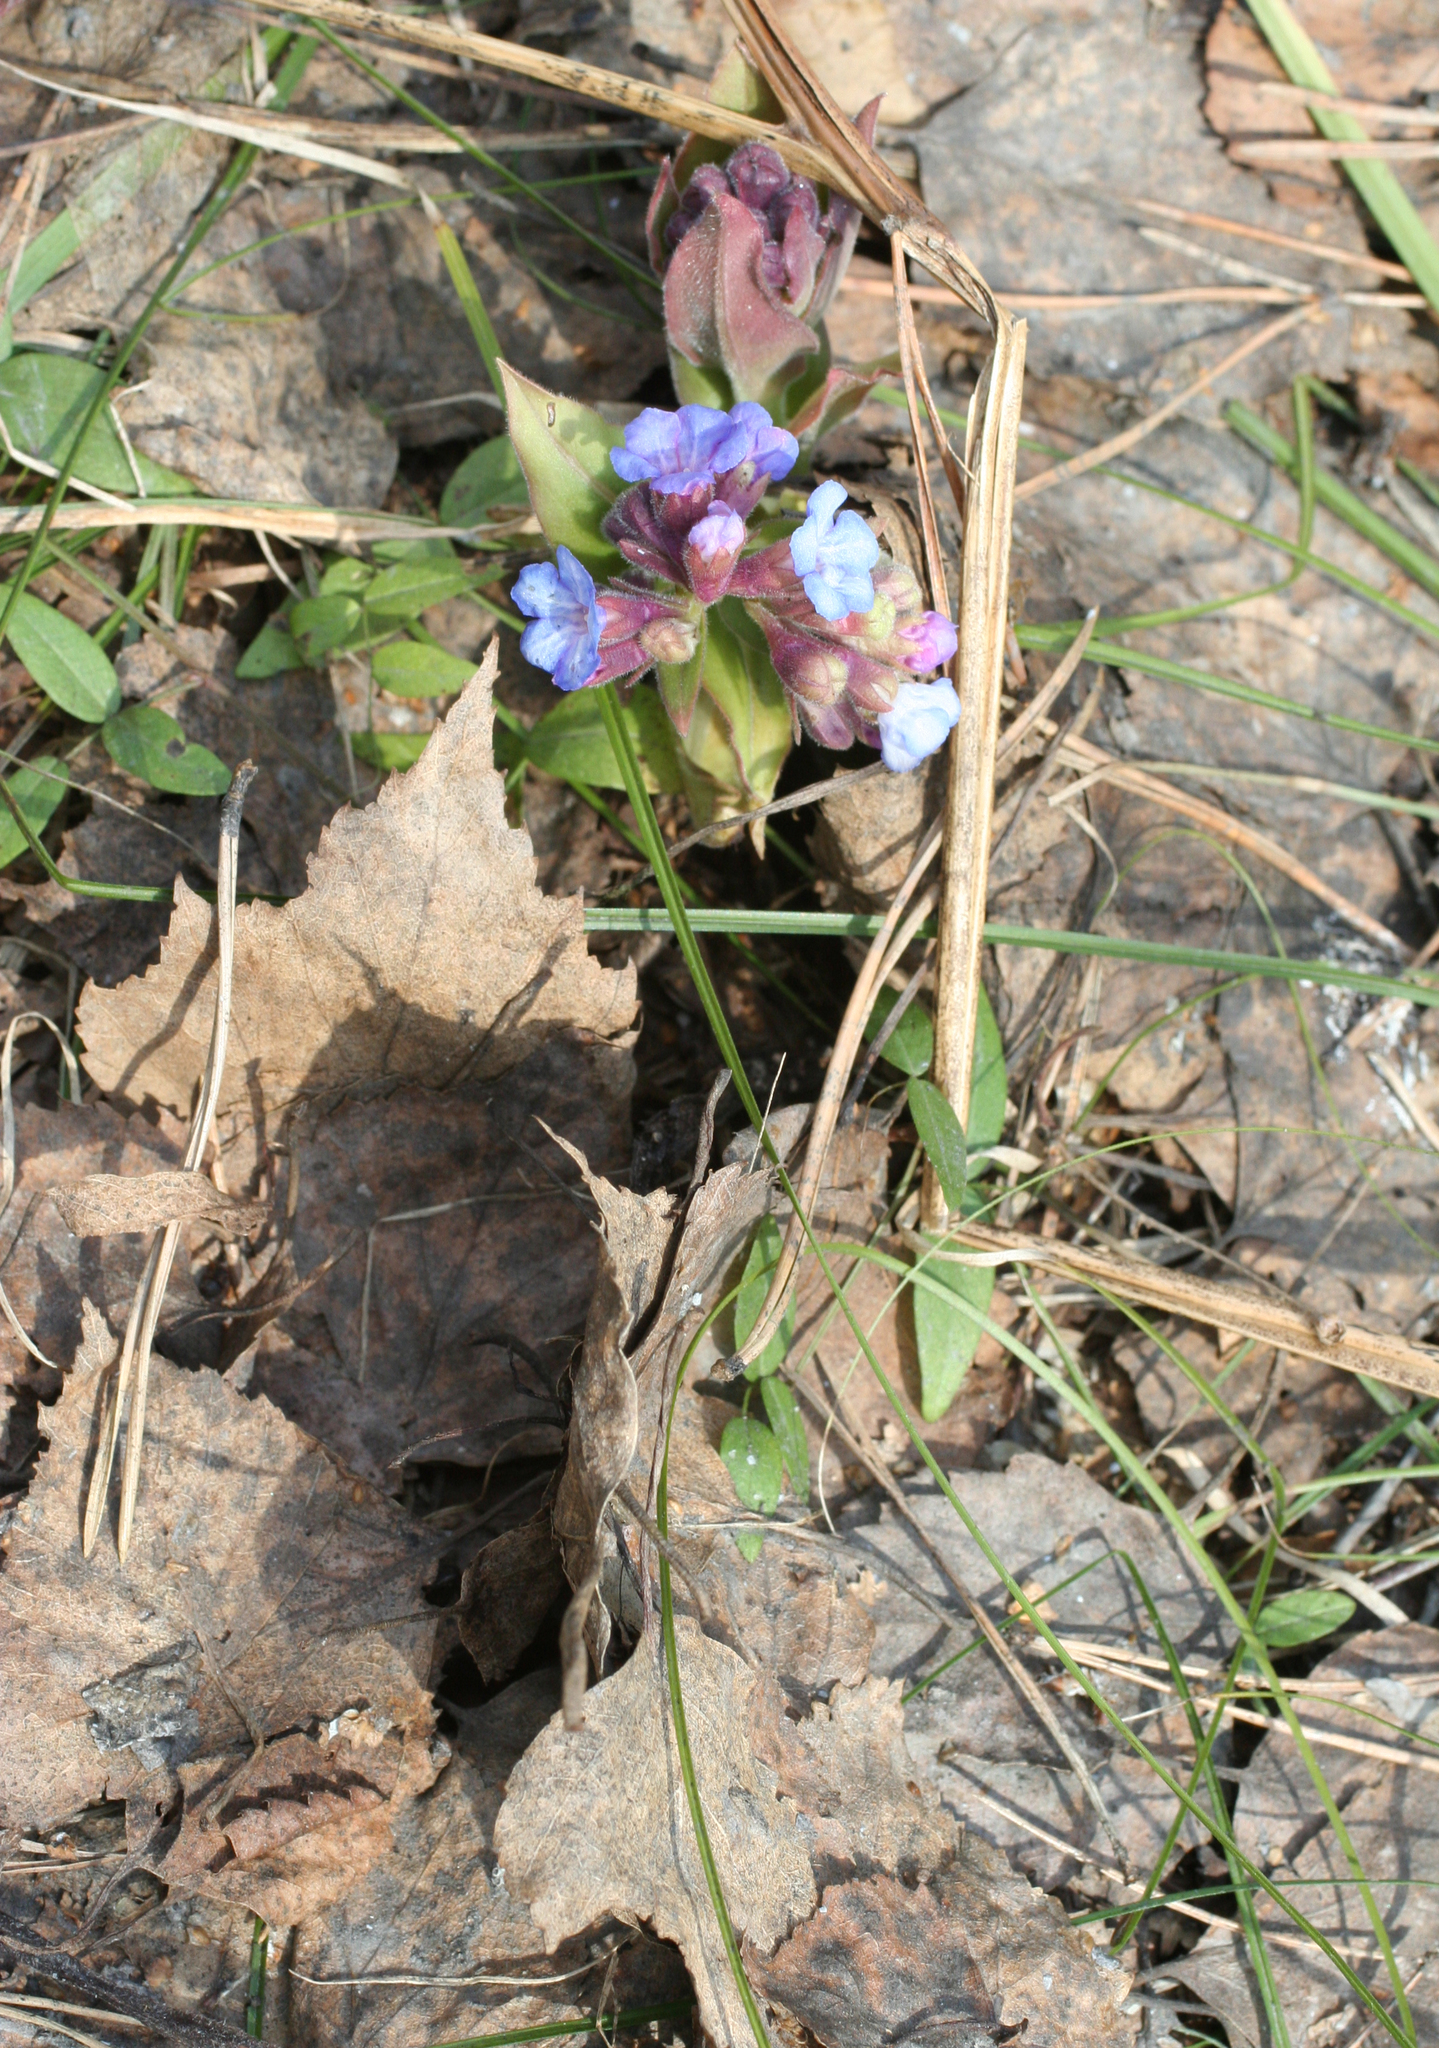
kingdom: Plantae
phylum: Tracheophyta
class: Magnoliopsida
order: Boraginales
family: Boraginaceae
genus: Pulmonaria
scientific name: Pulmonaria mollis
